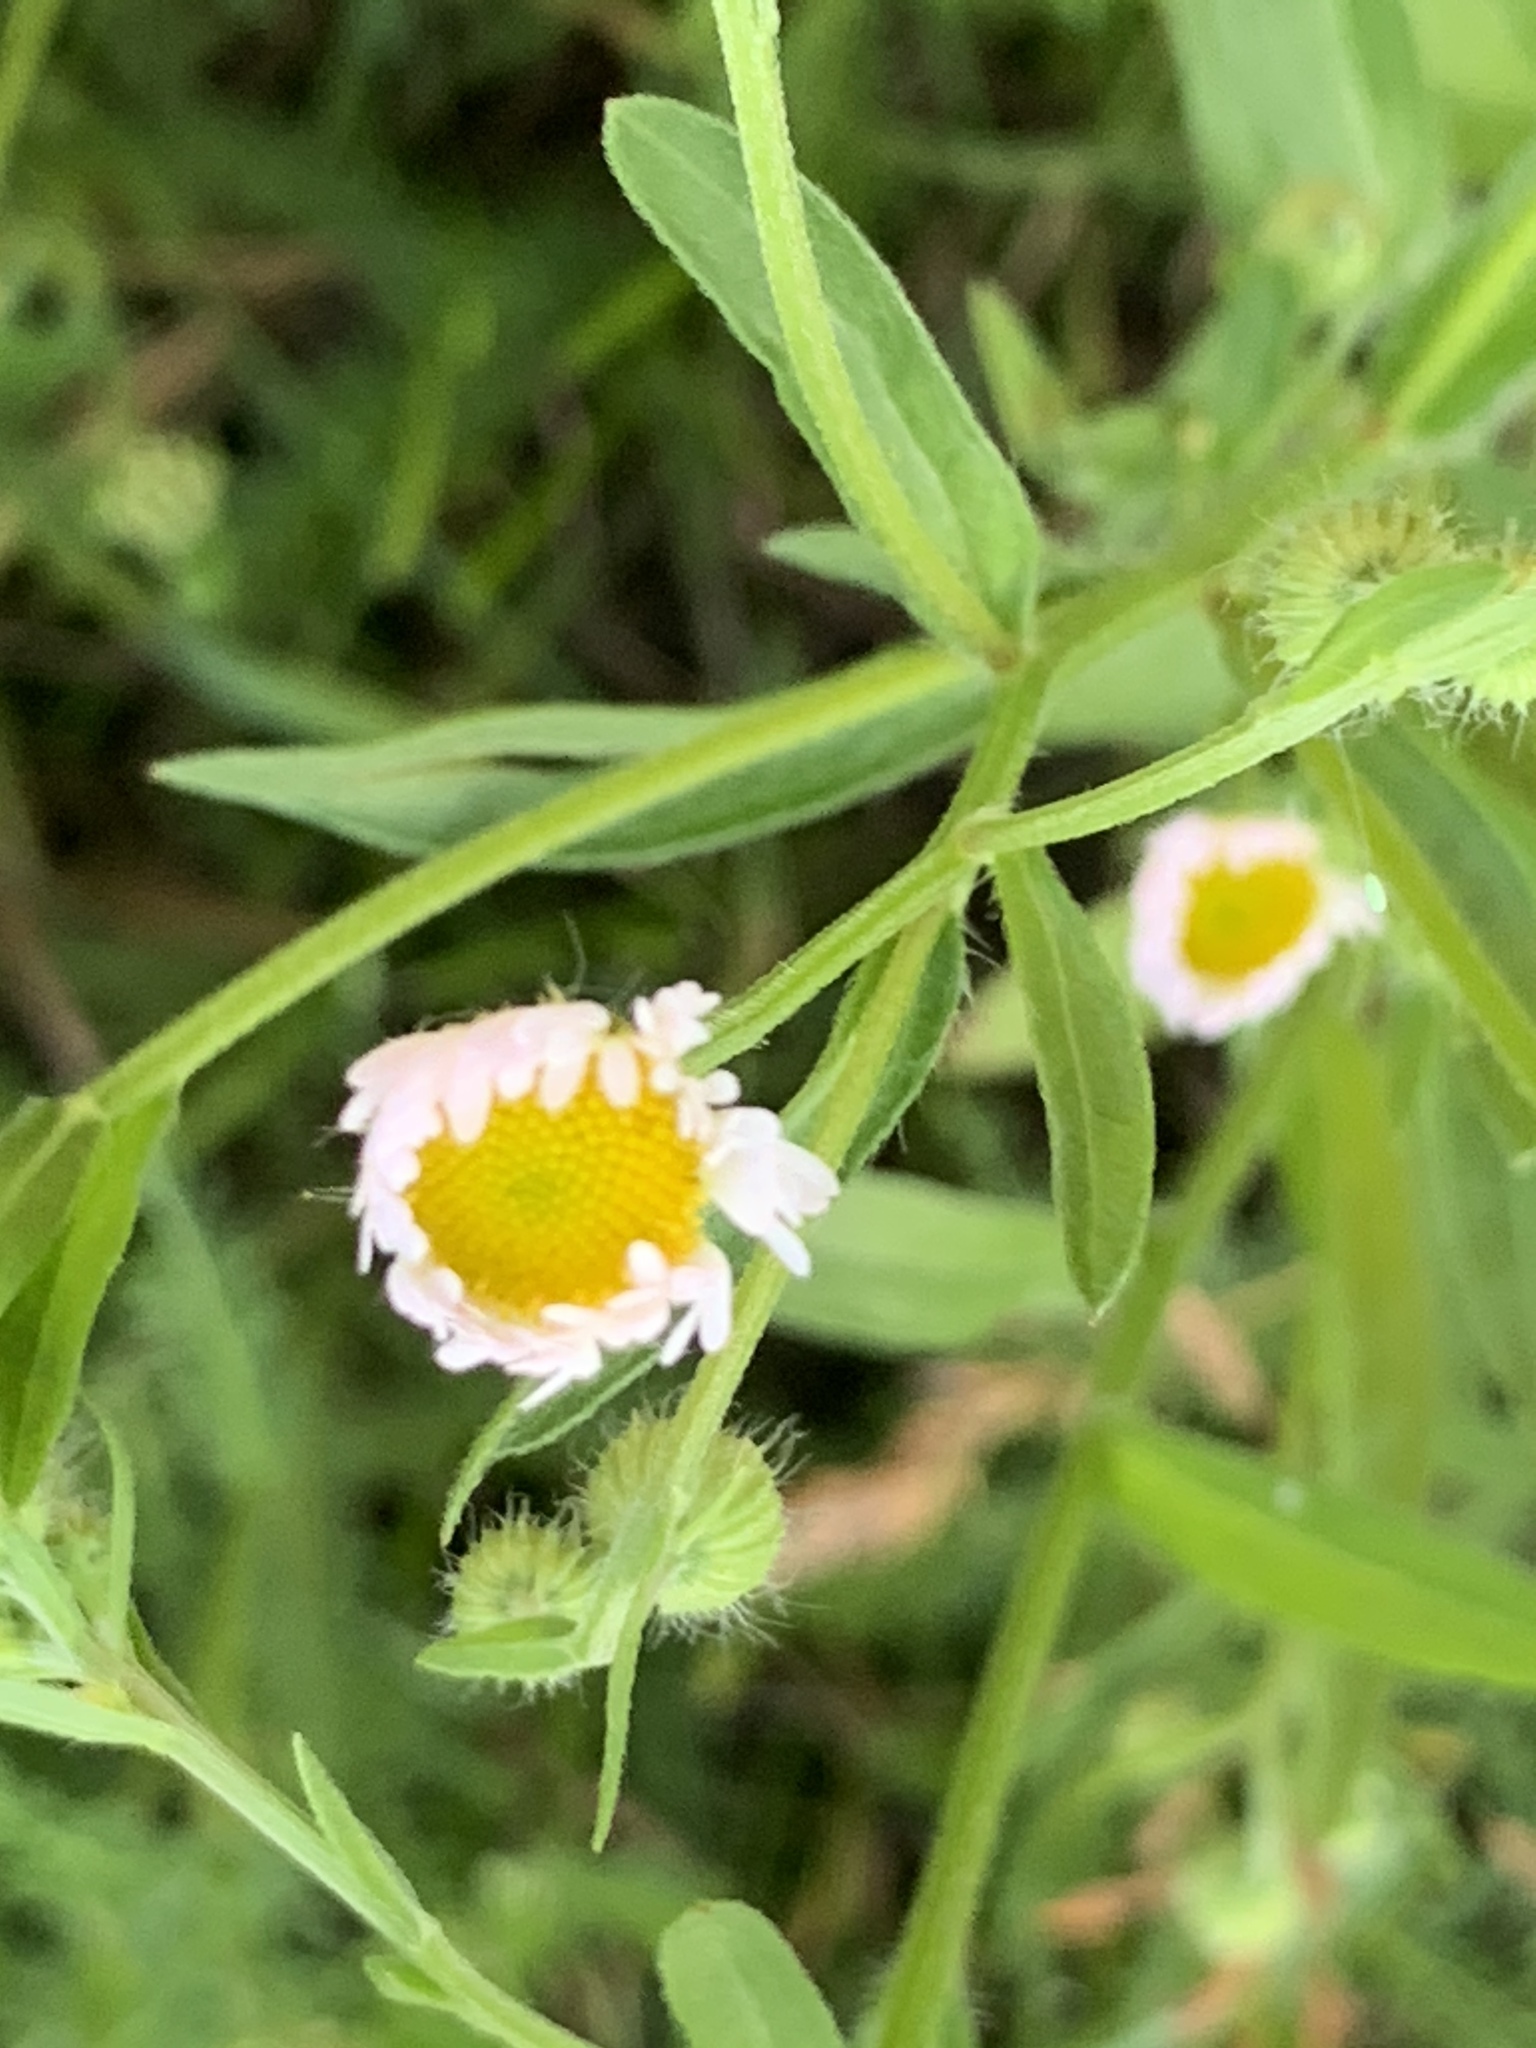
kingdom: Plantae
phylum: Tracheophyta
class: Magnoliopsida
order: Asterales
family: Asteraceae
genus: Erigeron
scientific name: Erigeron strigosus
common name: Common eastern fleabane
